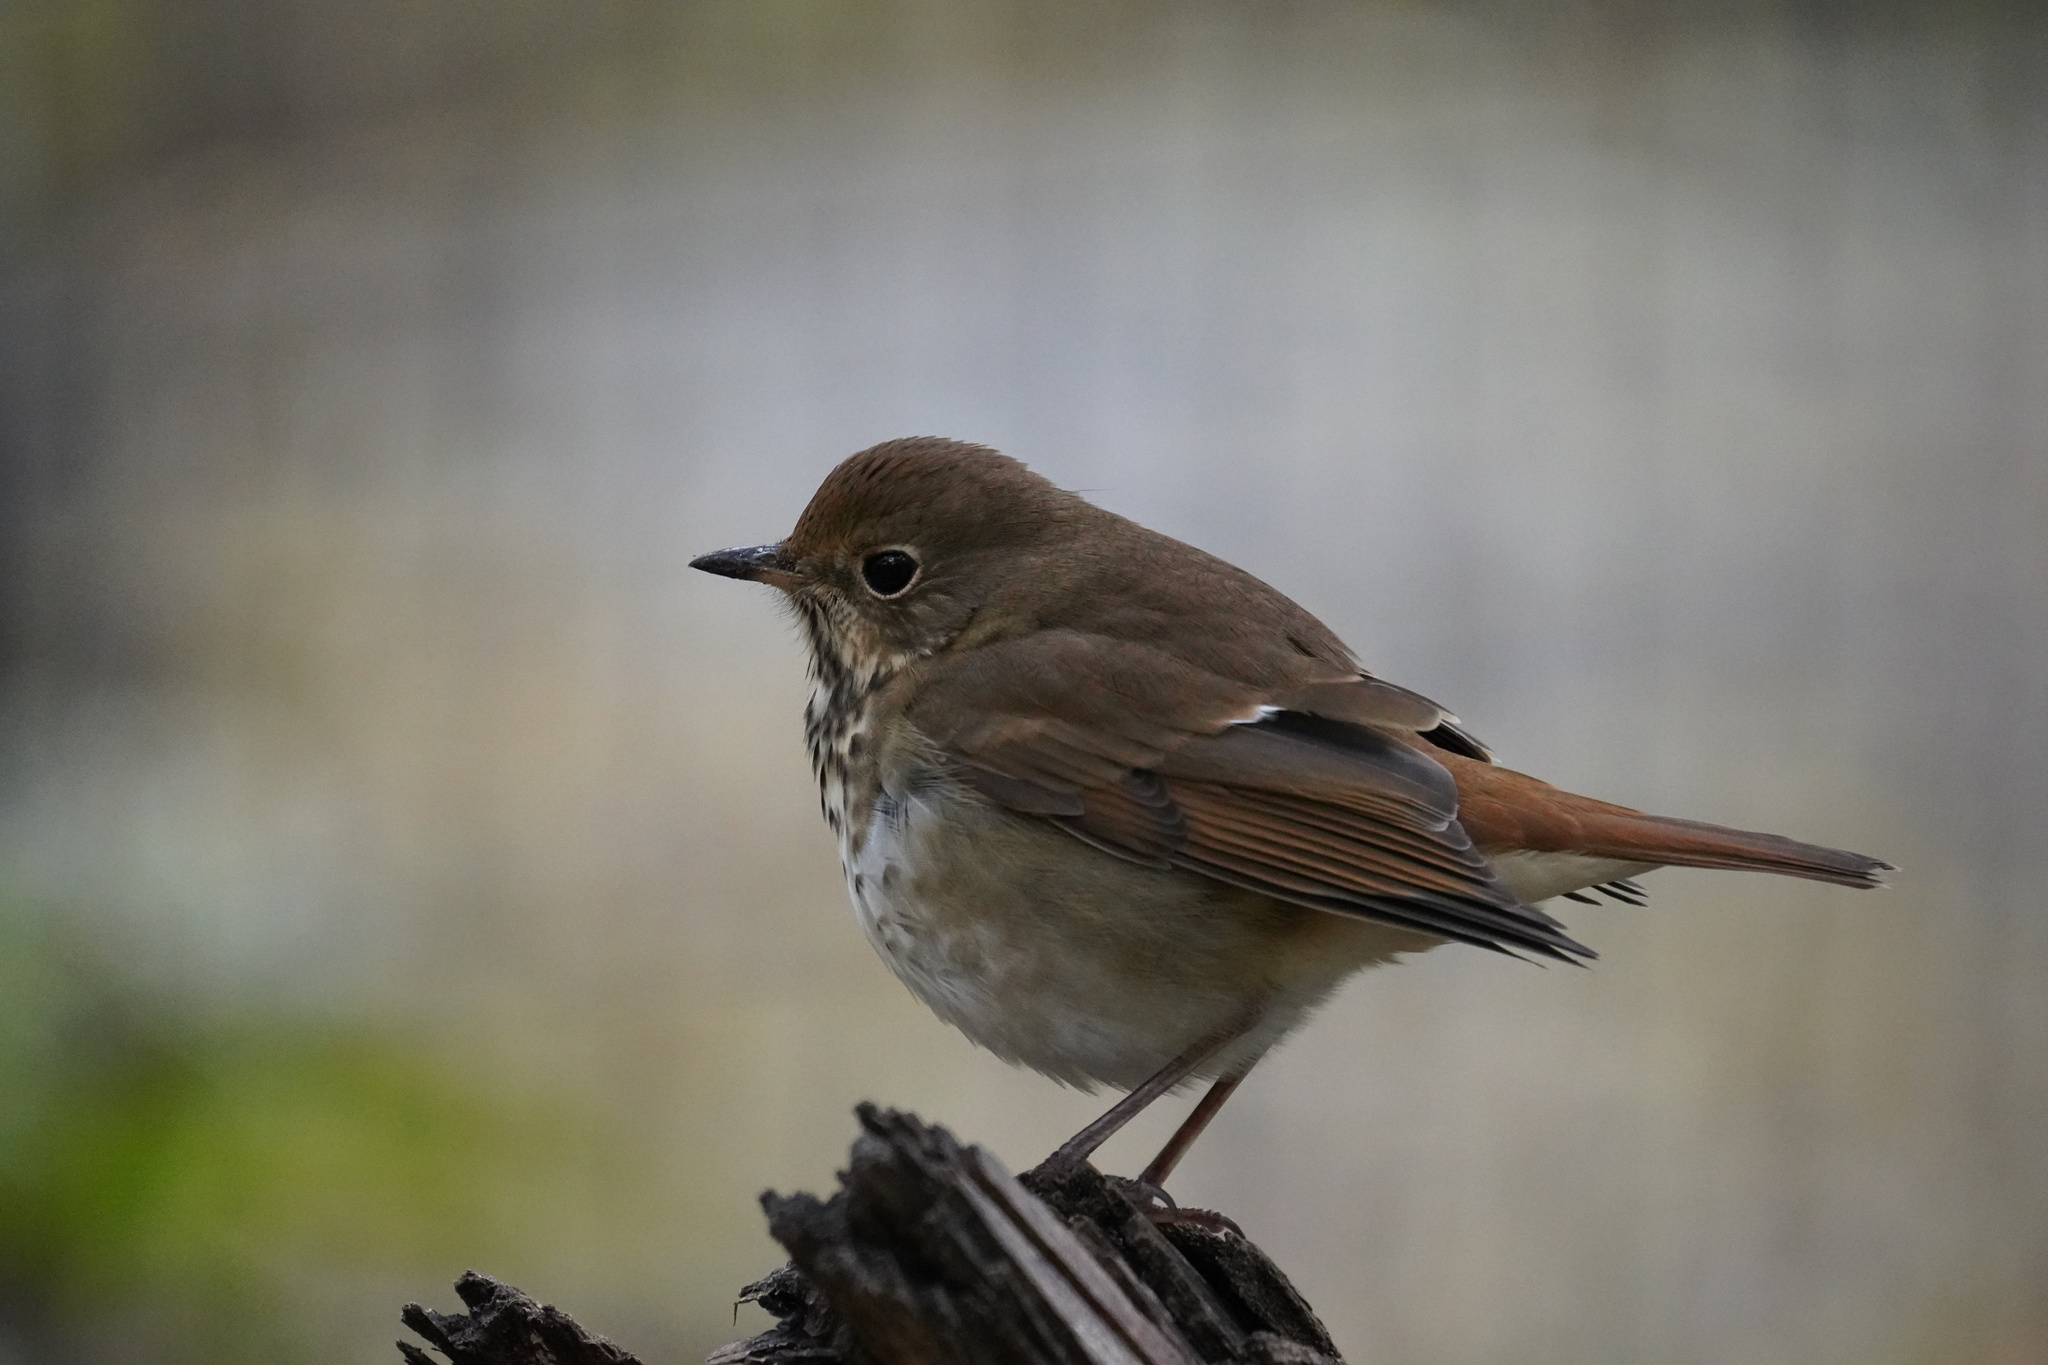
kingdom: Animalia
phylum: Chordata
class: Aves
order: Passeriformes
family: Turdidae
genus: Catharus
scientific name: Catharus guttatus
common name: Hermit thrush
